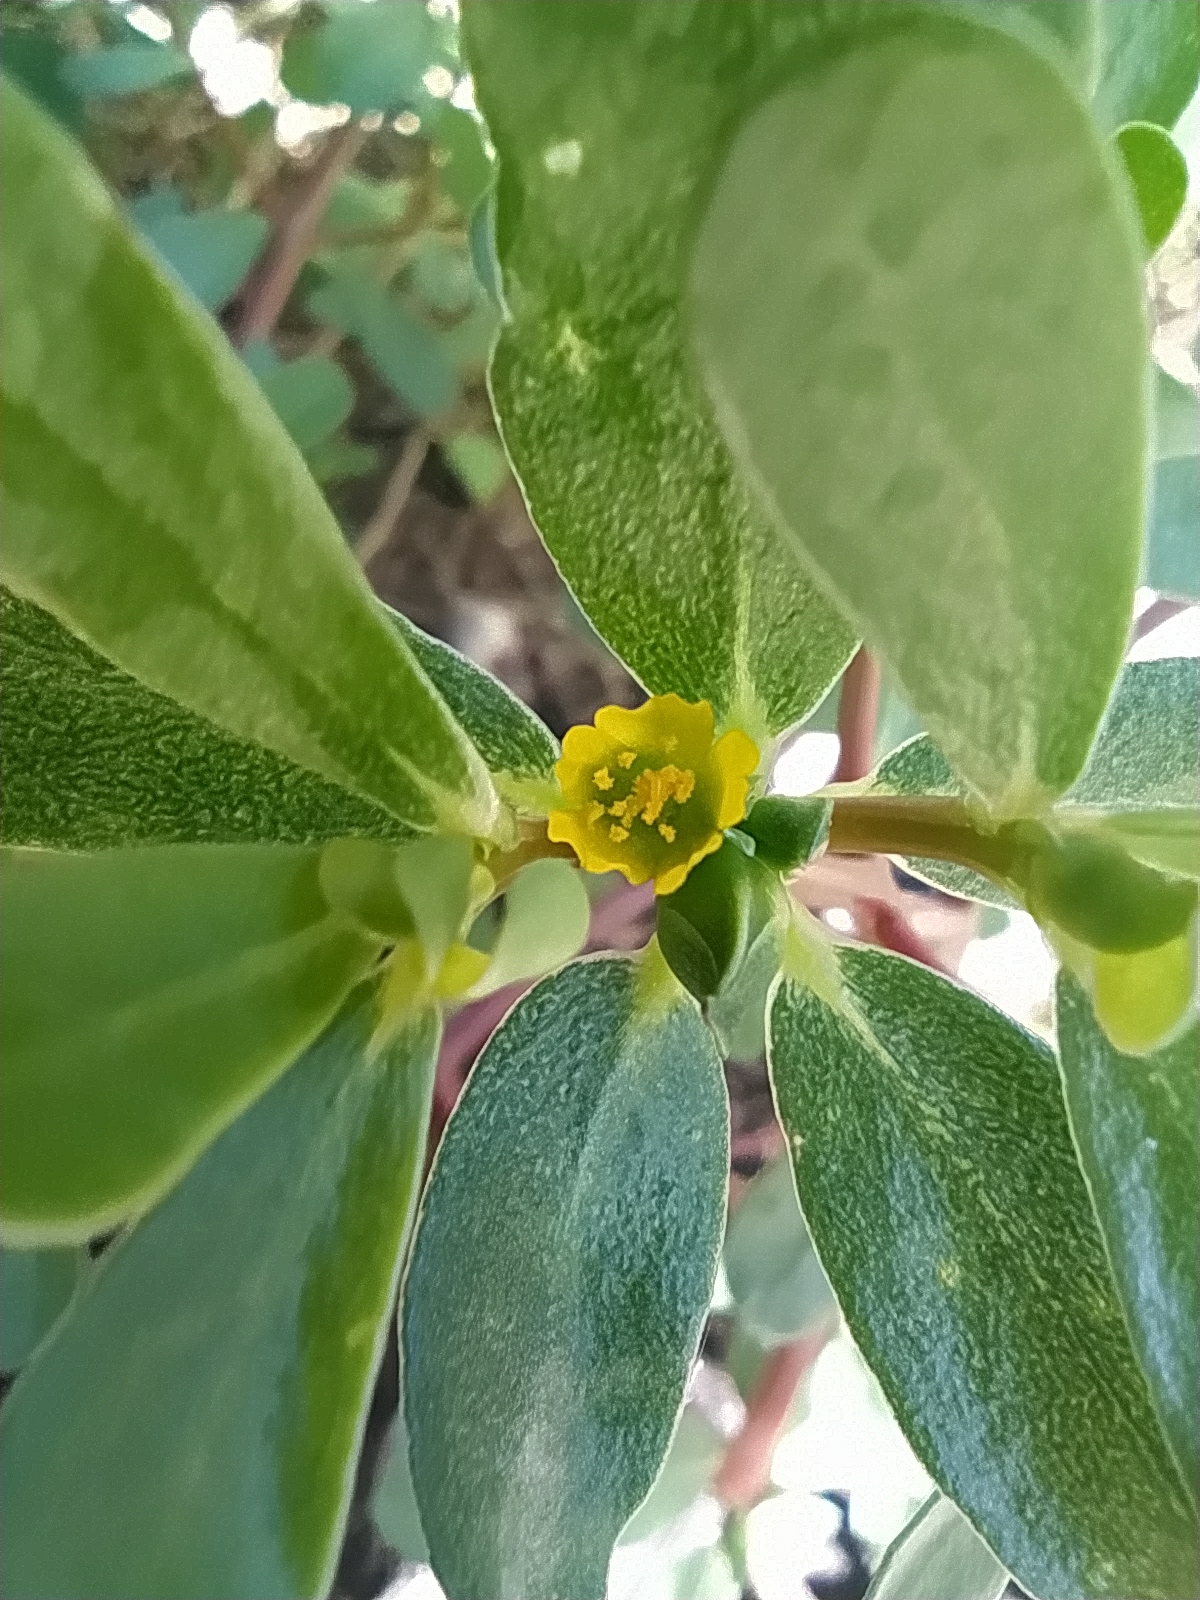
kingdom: Plantae
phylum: Tracheophyta
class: Magnoliopsida
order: Caryophyllales
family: Portulacaceae
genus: Portulaca
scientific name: Portulaca oleracea
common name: Common purslane
